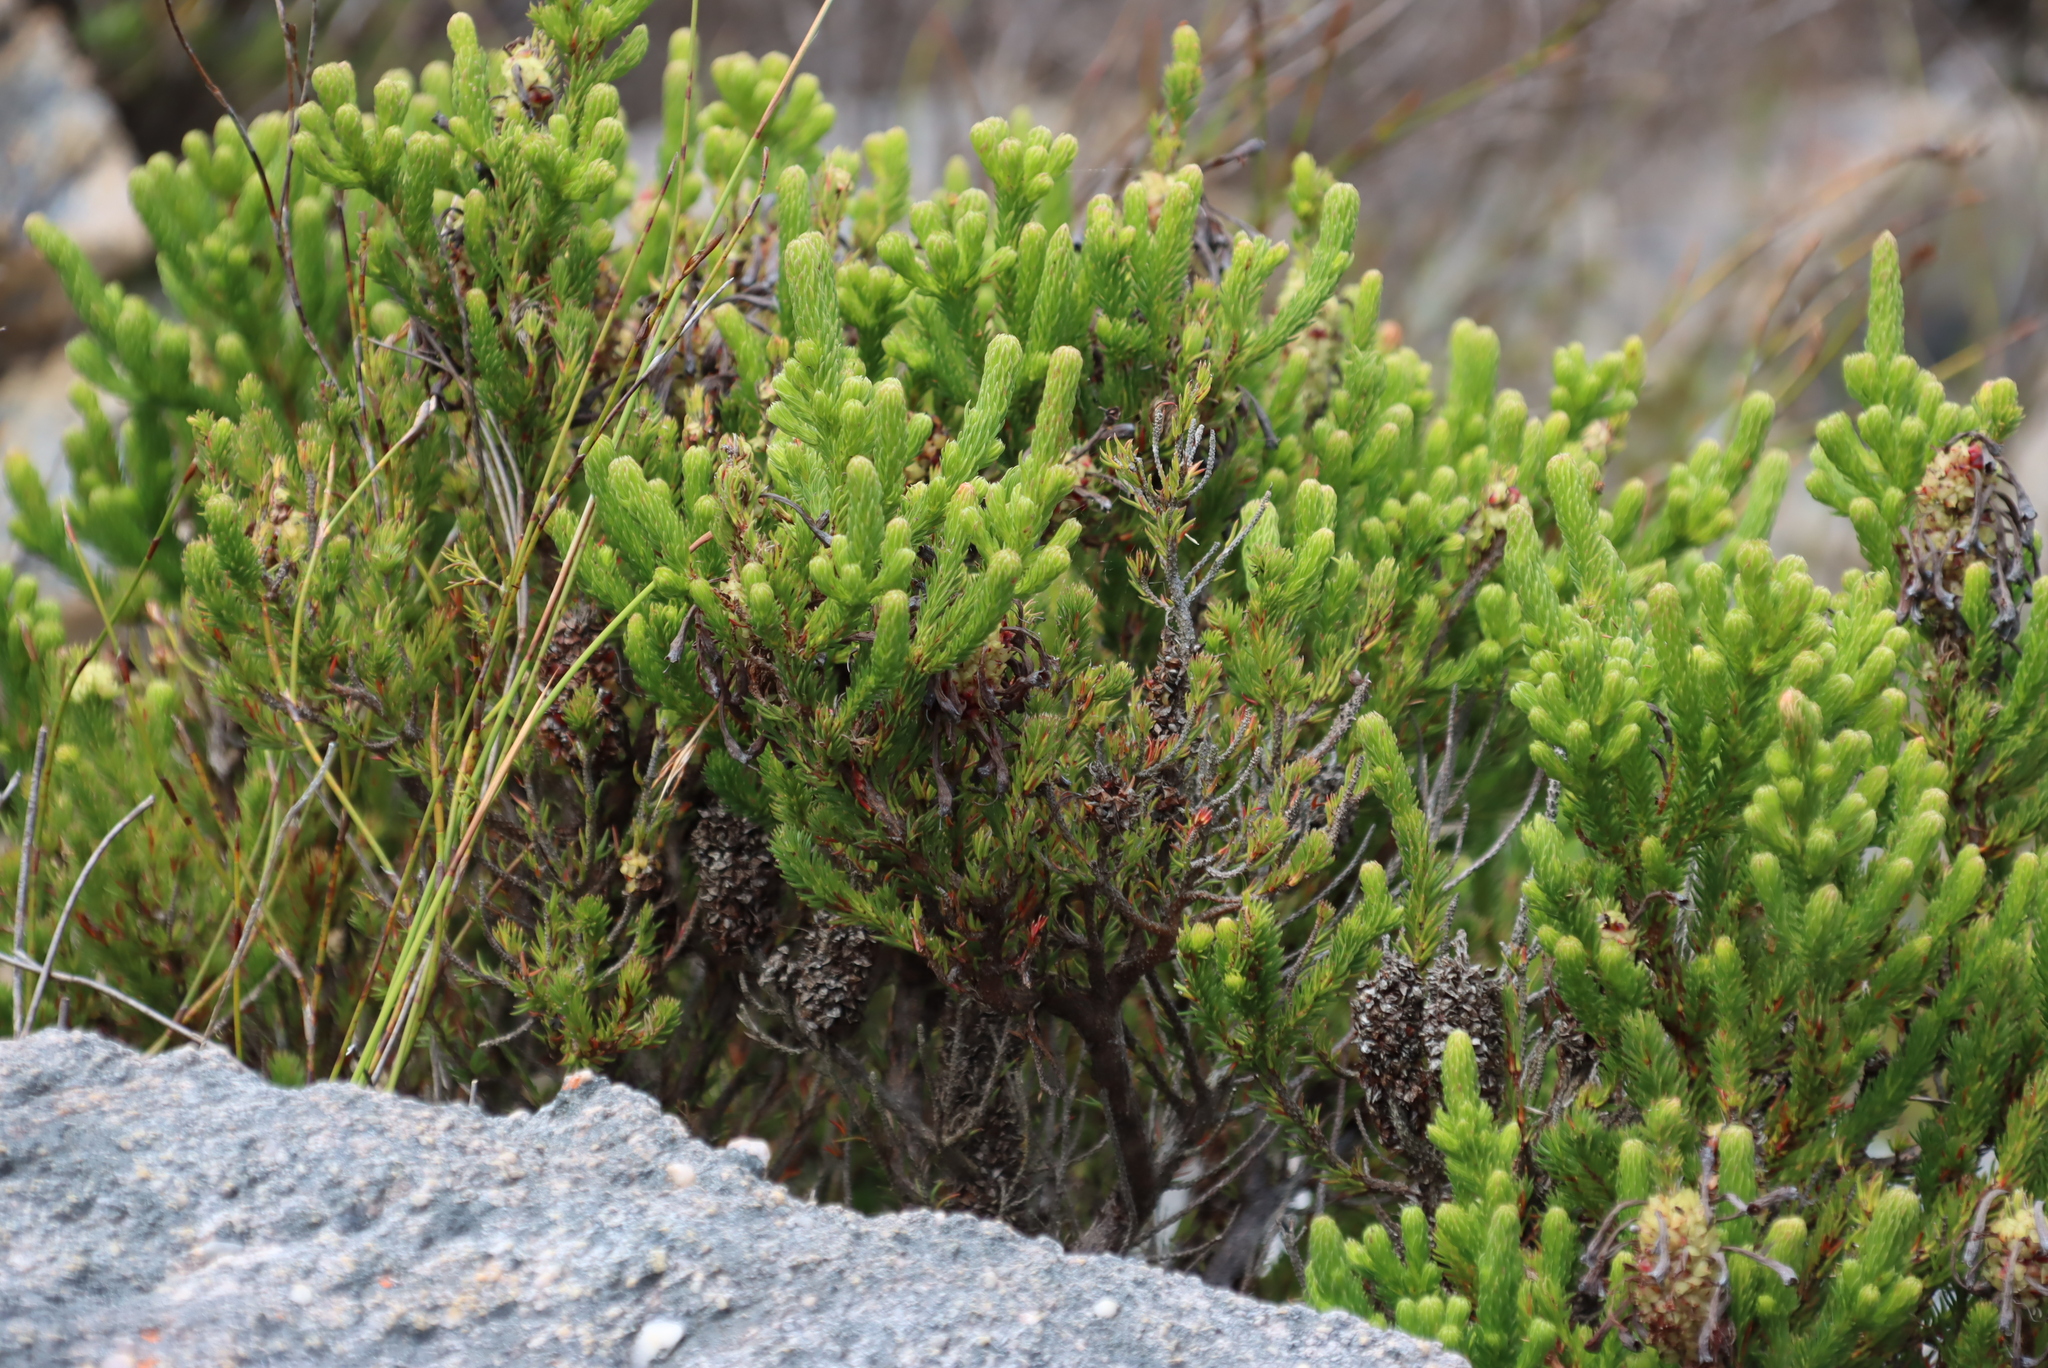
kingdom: Plantae
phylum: Tracheophyta
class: Magnoliopsida
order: Ericales
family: Ericaceae
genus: Erica
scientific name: Erica sessiliflora
